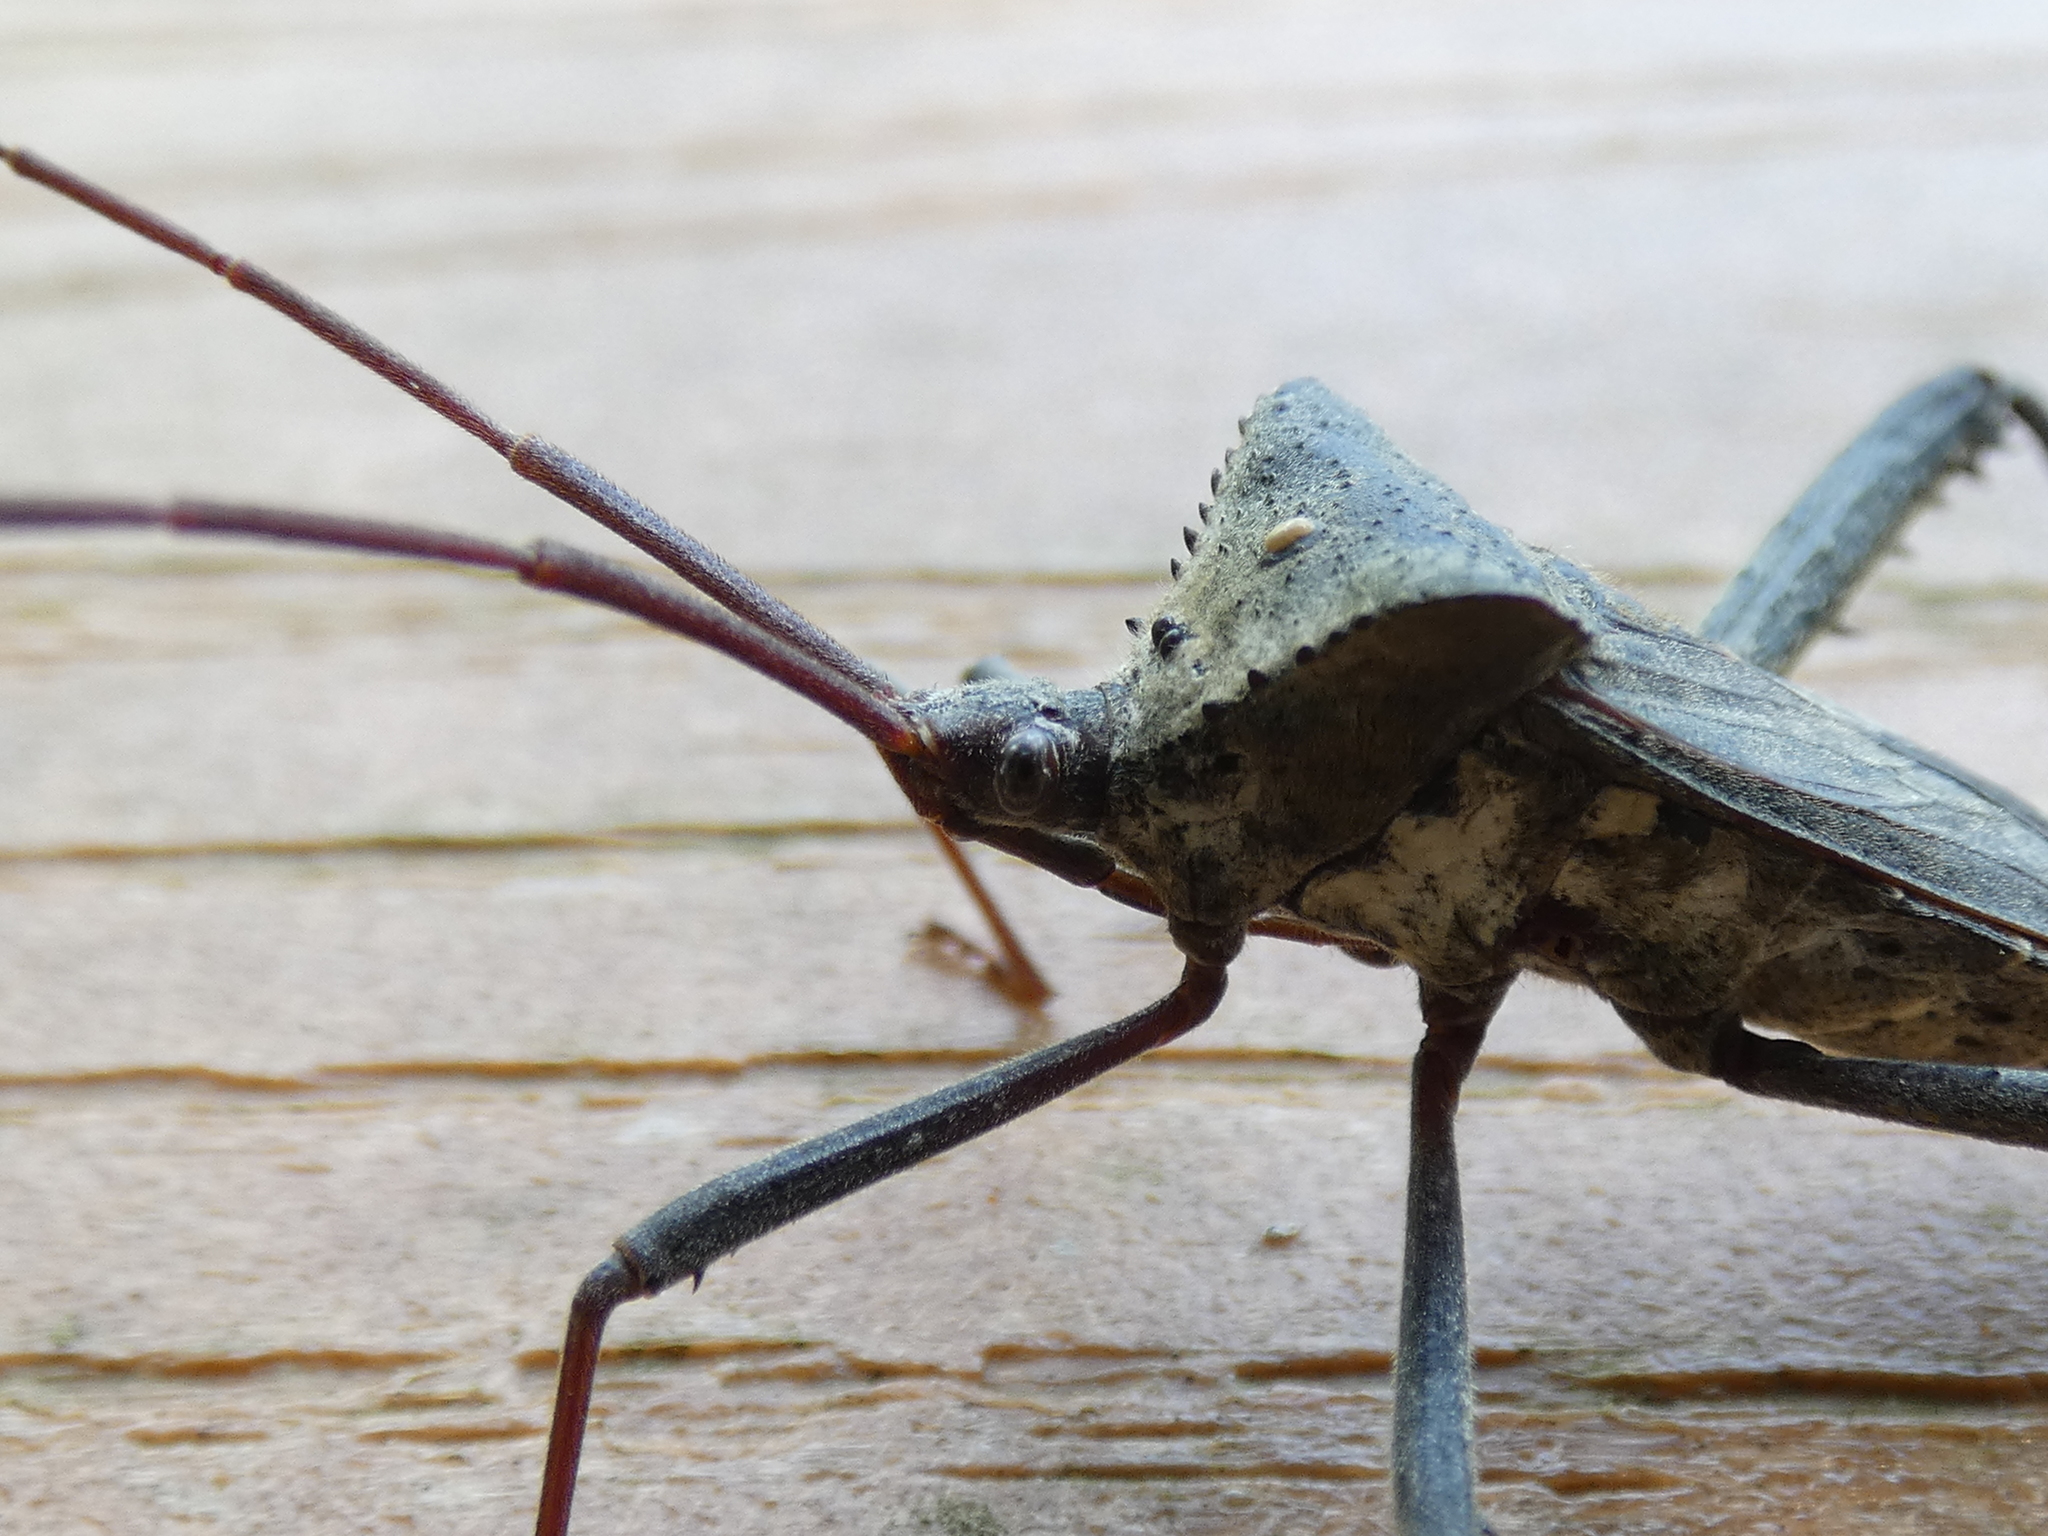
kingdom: Animalia
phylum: Arthropoda
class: Insecta
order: Hemiptera
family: Coreidae
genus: Acanthocephala
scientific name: Acanthocephala declivis
